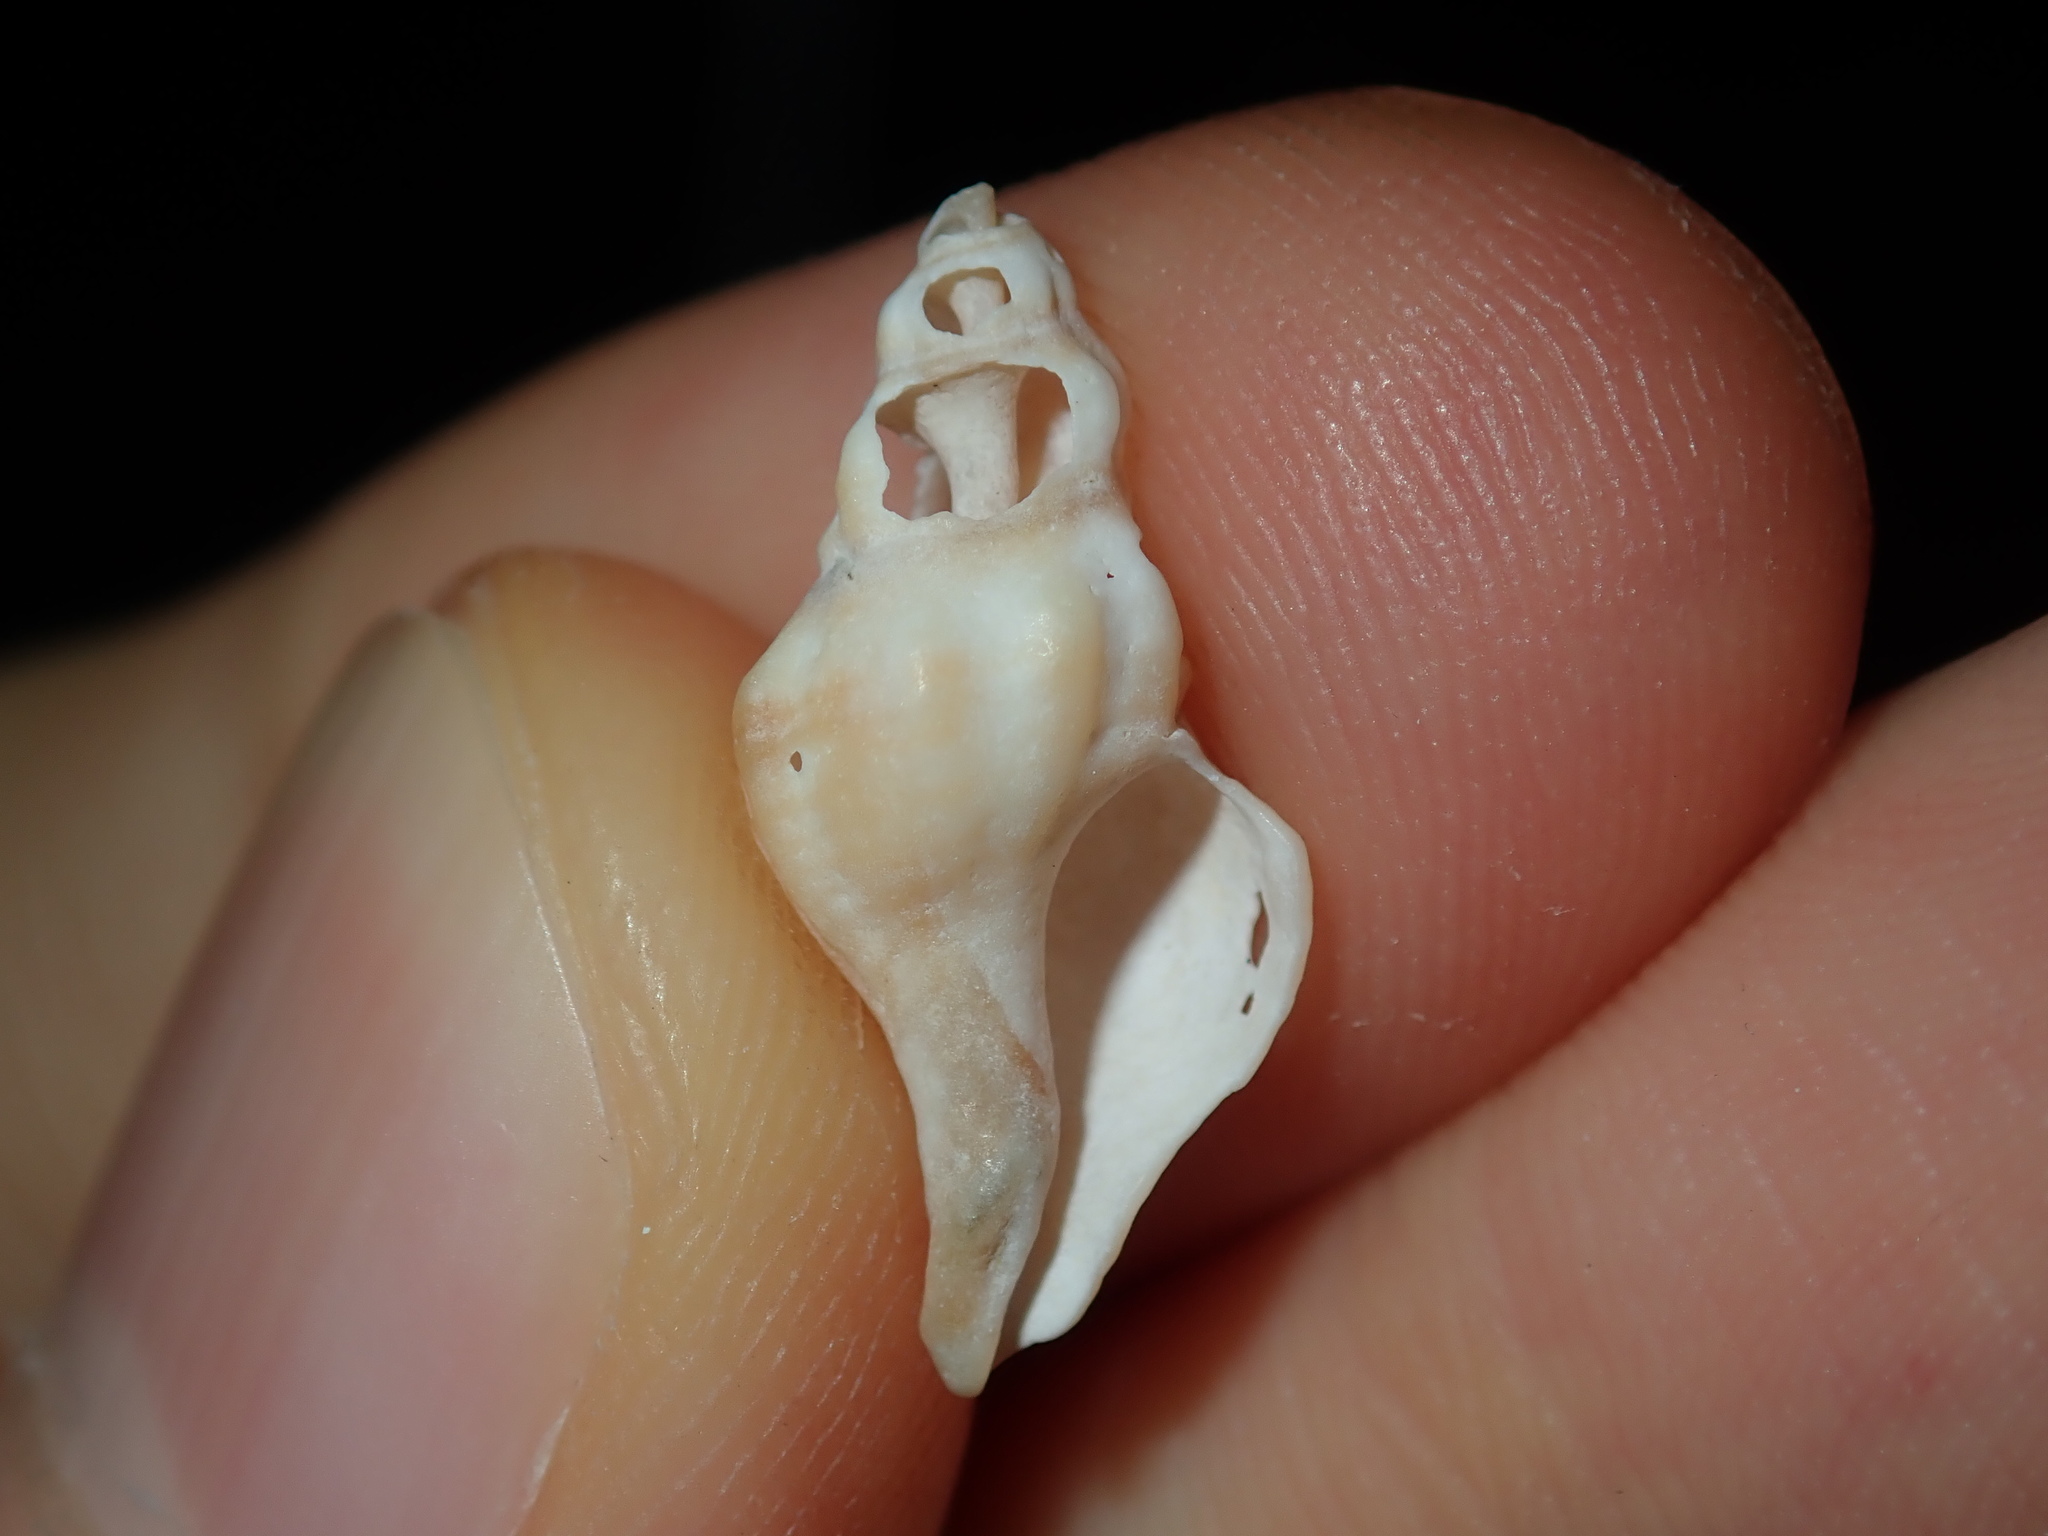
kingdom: Animalia
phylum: Mollusca
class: Gastropoda
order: Neogastropoda
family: Muricidae
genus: Bedeva
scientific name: Bedeva paivae
